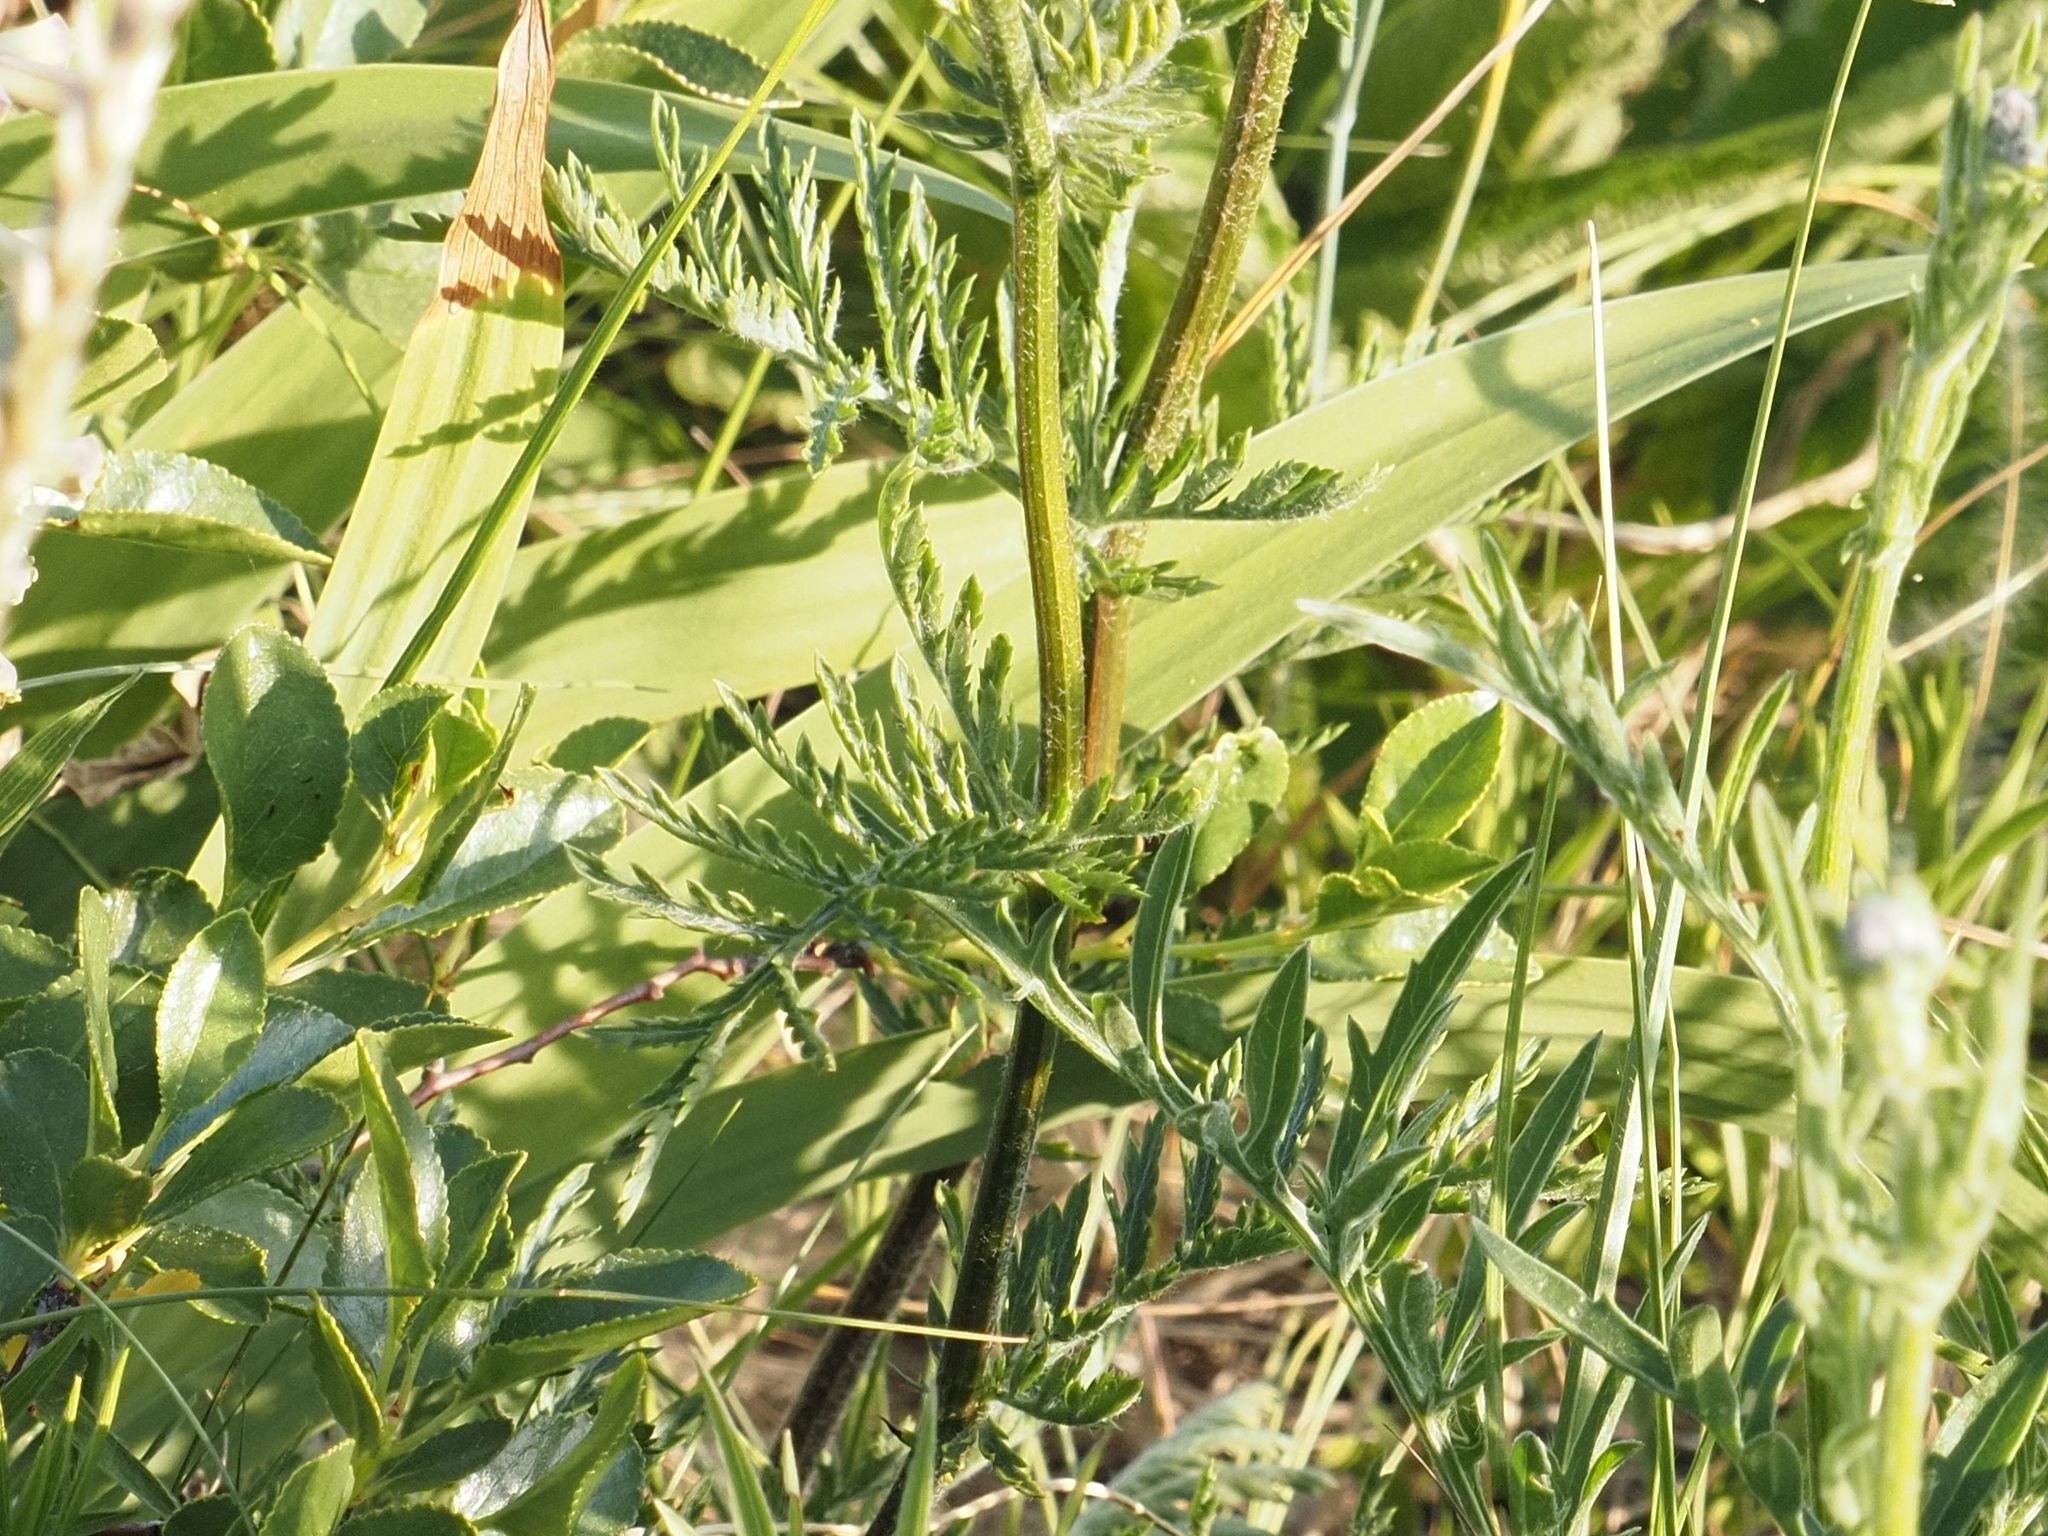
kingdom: Plantae
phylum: Tracheophyta
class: Magnoliopsida
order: Asterales
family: Asteraceae
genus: Tanacetum
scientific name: Tanacetum corymbosum
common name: Scentless feverfew
